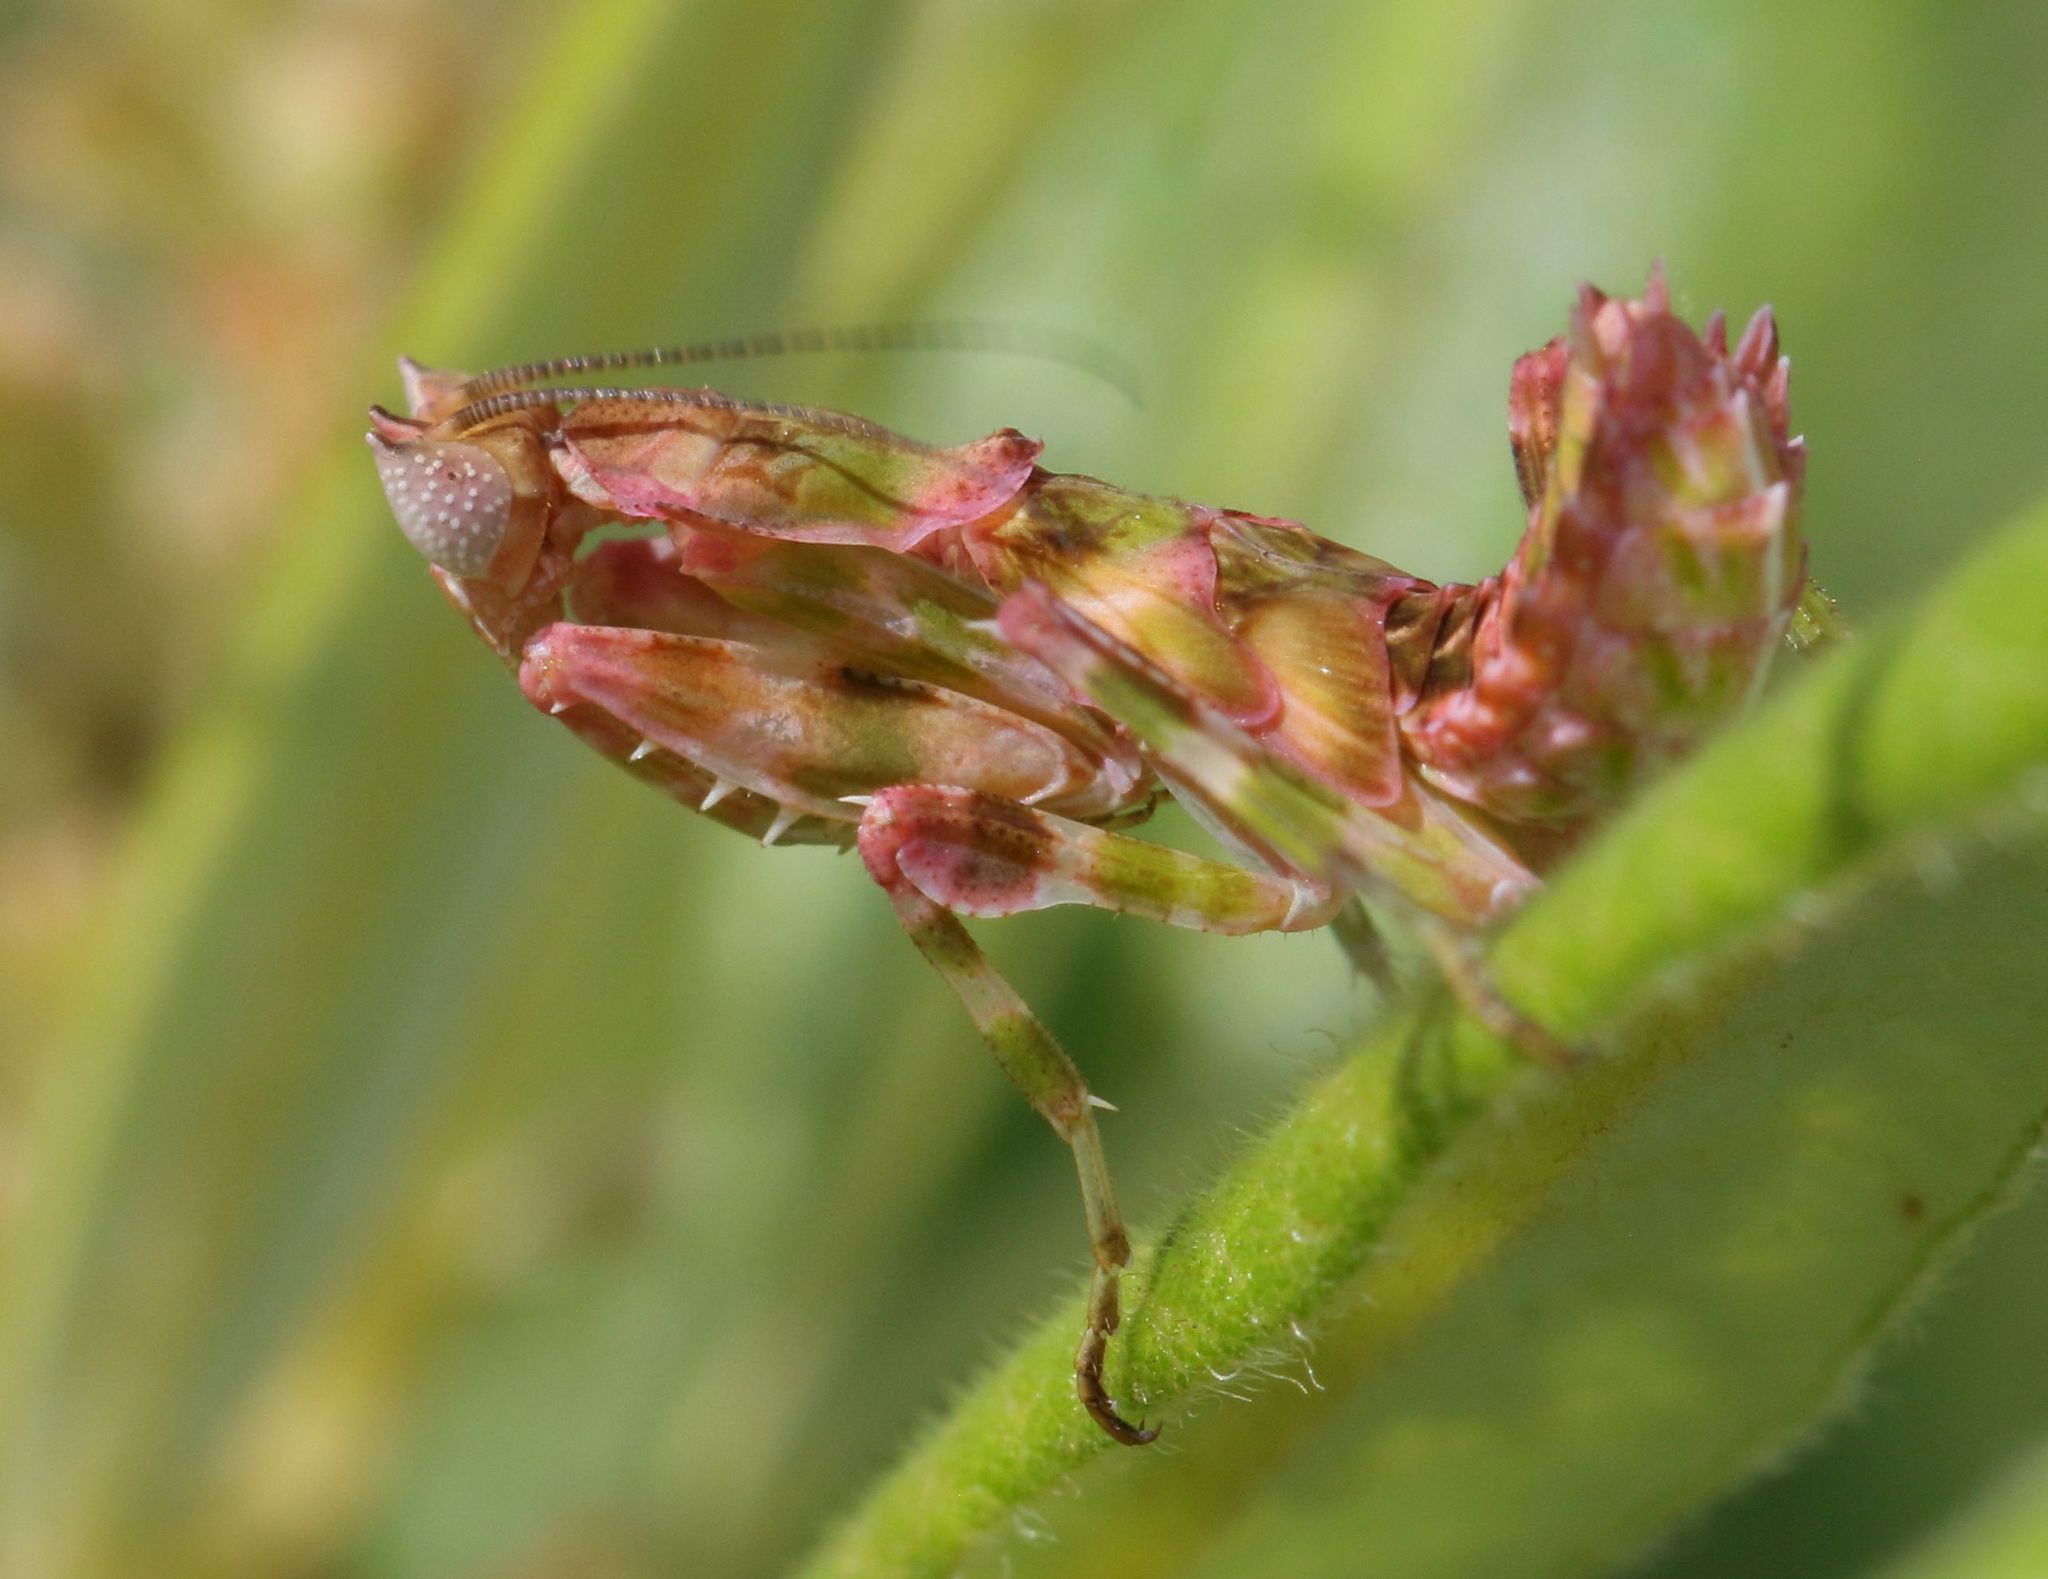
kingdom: Animalia
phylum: Arthropoda
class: Insecta
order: Mantodea
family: Galinthiadidae
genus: Harpagomantis
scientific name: Harpagomantis tricolor
